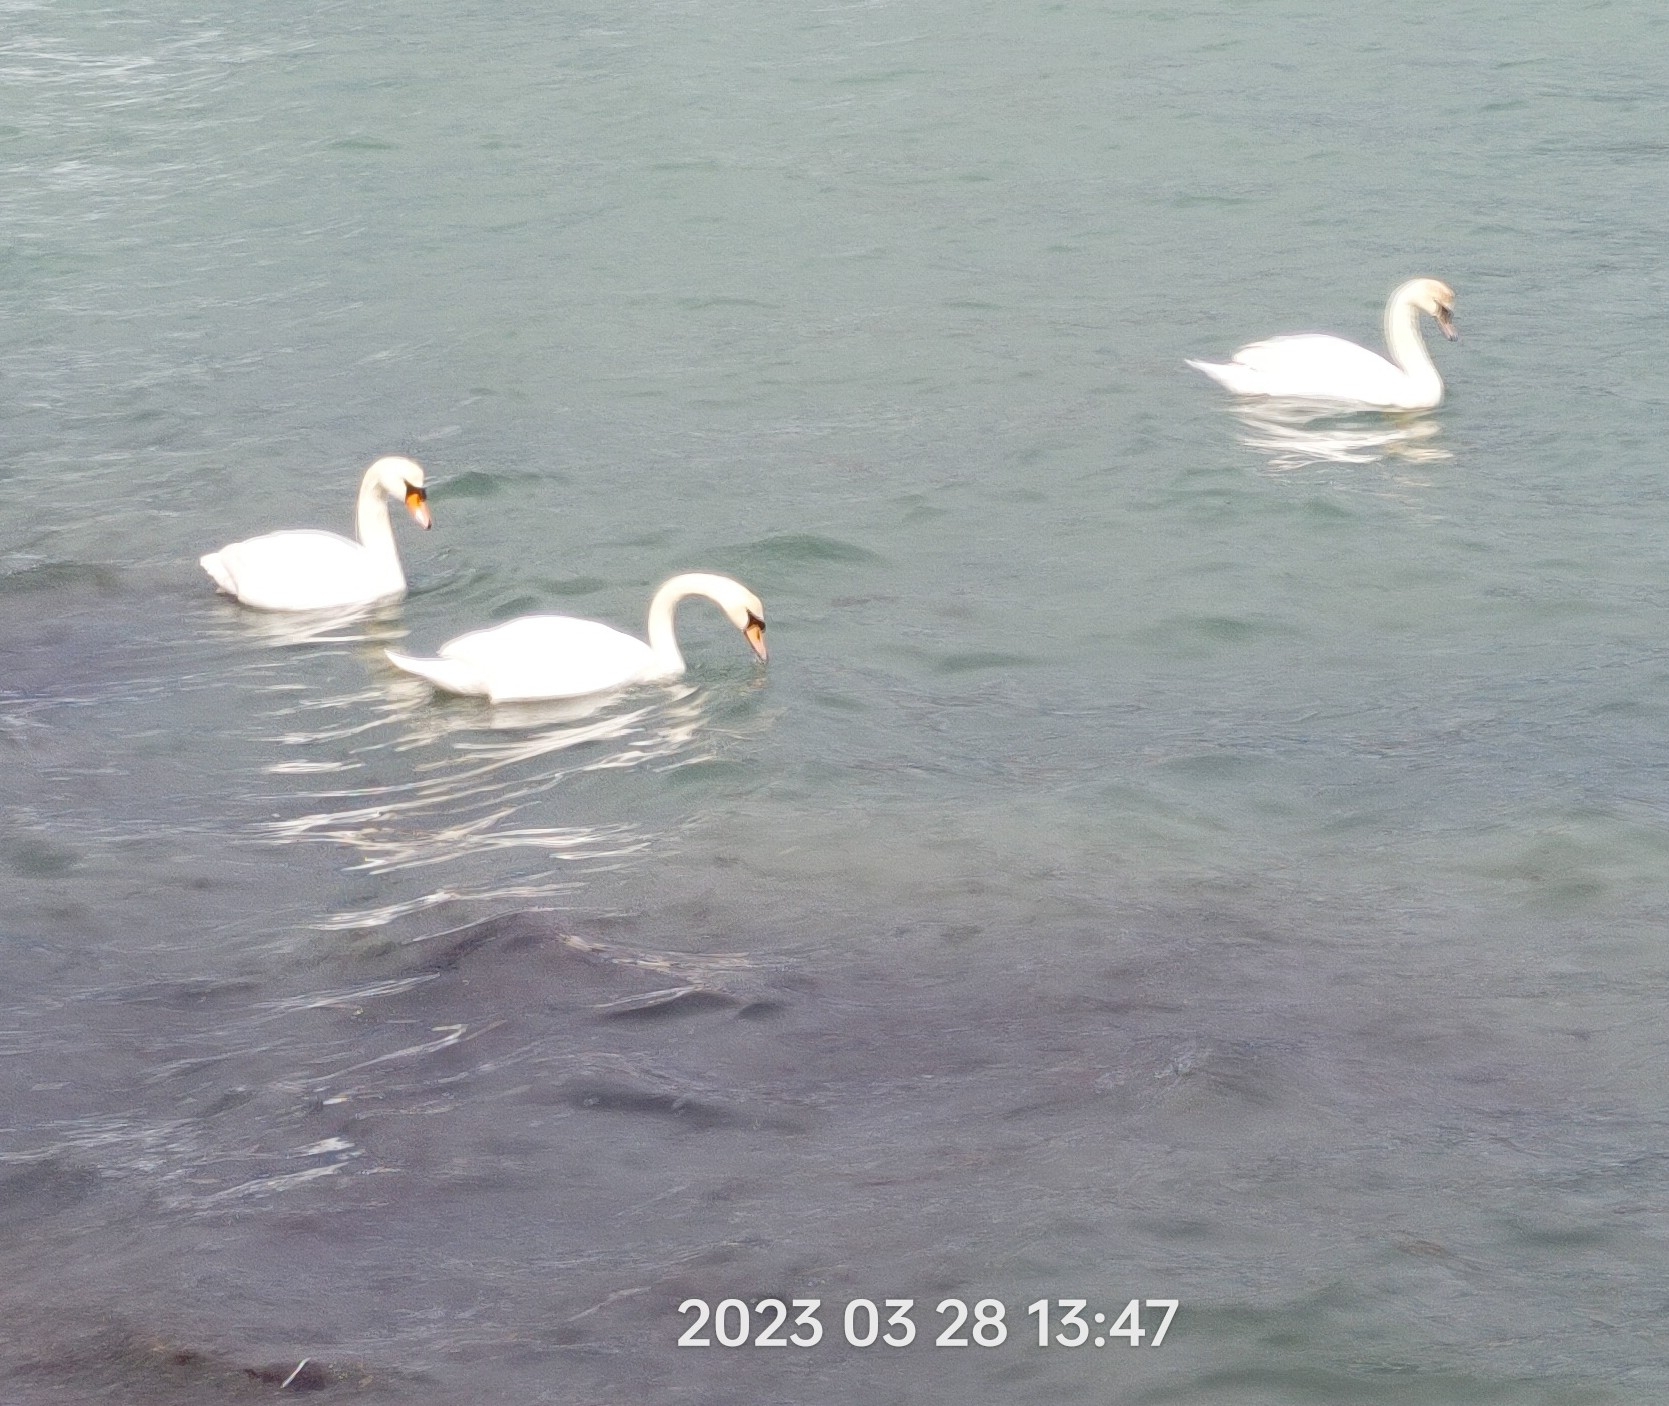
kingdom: Animalia
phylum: Chordata
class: Aves
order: Anseriformes
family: Anatidae
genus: Cygnus
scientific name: Cygnus olor
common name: Mute swan
